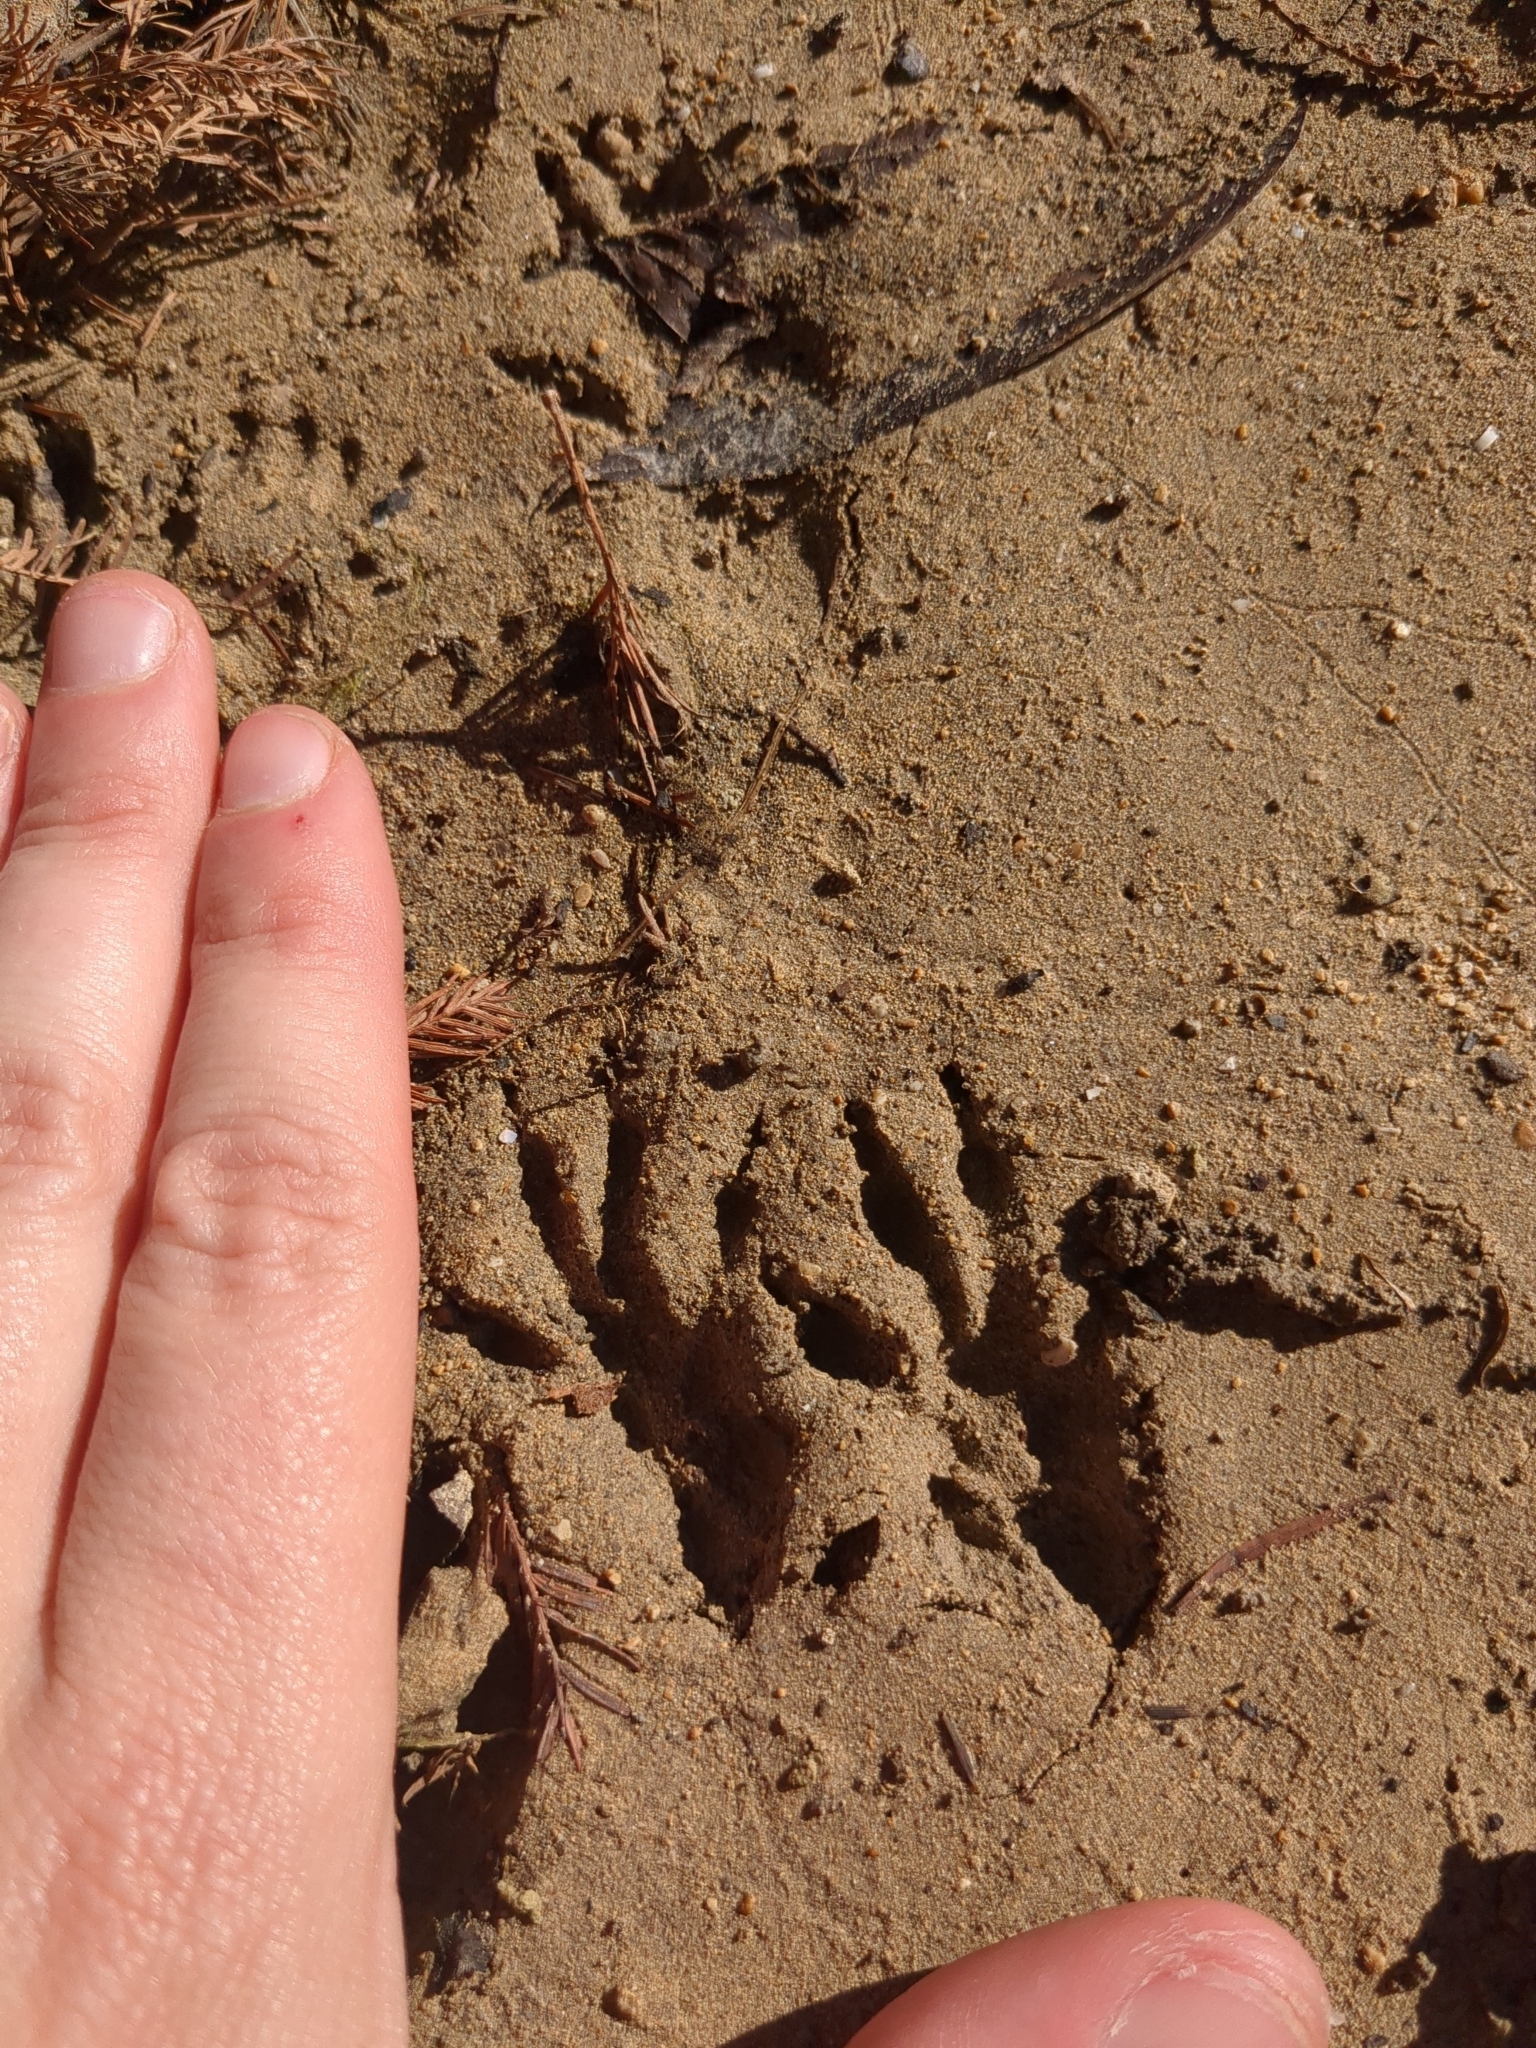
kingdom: Animalia
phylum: Chordata
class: Mammalia
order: Rodentia
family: Sciuridae
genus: Sciurus
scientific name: Sciurus niger
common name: Fox squirrel
